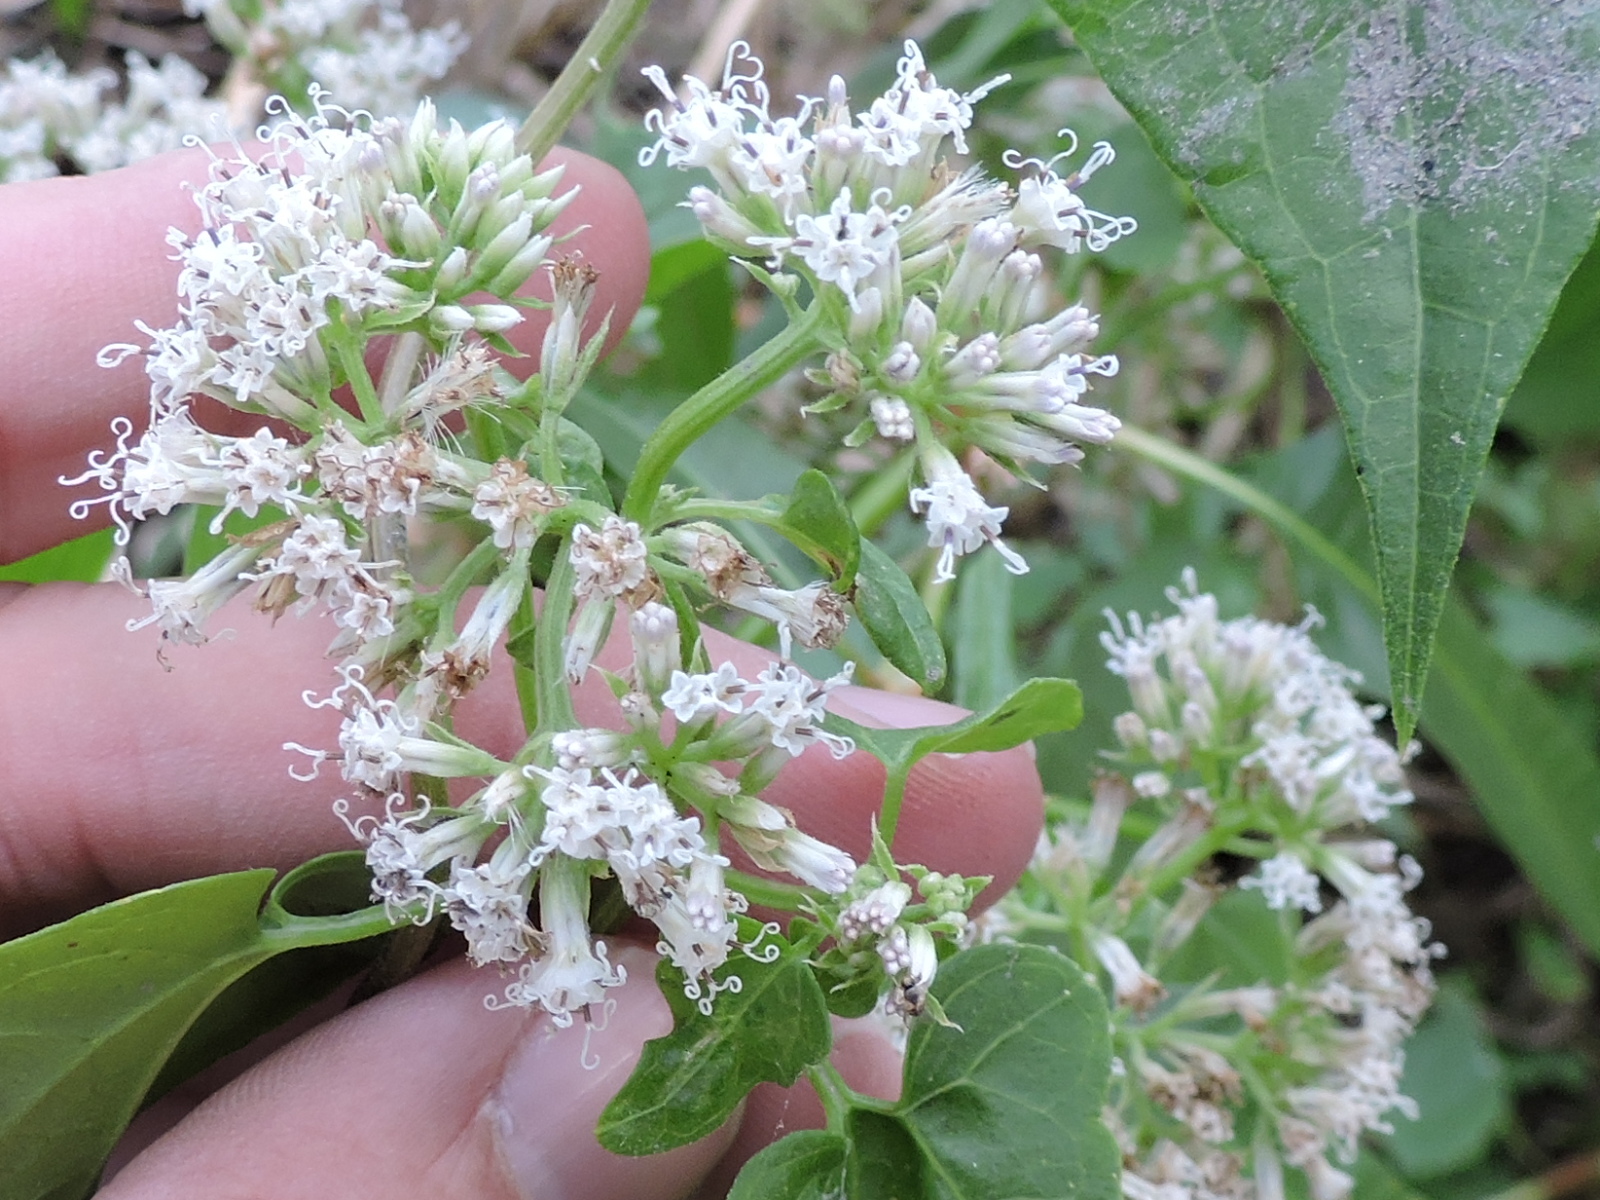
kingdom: Plantae
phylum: Tracheophyta
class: Magnoliopsida
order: Asterales
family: Asteraceae
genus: Mikania
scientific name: Mikania scandens
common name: Climbing hempvine
